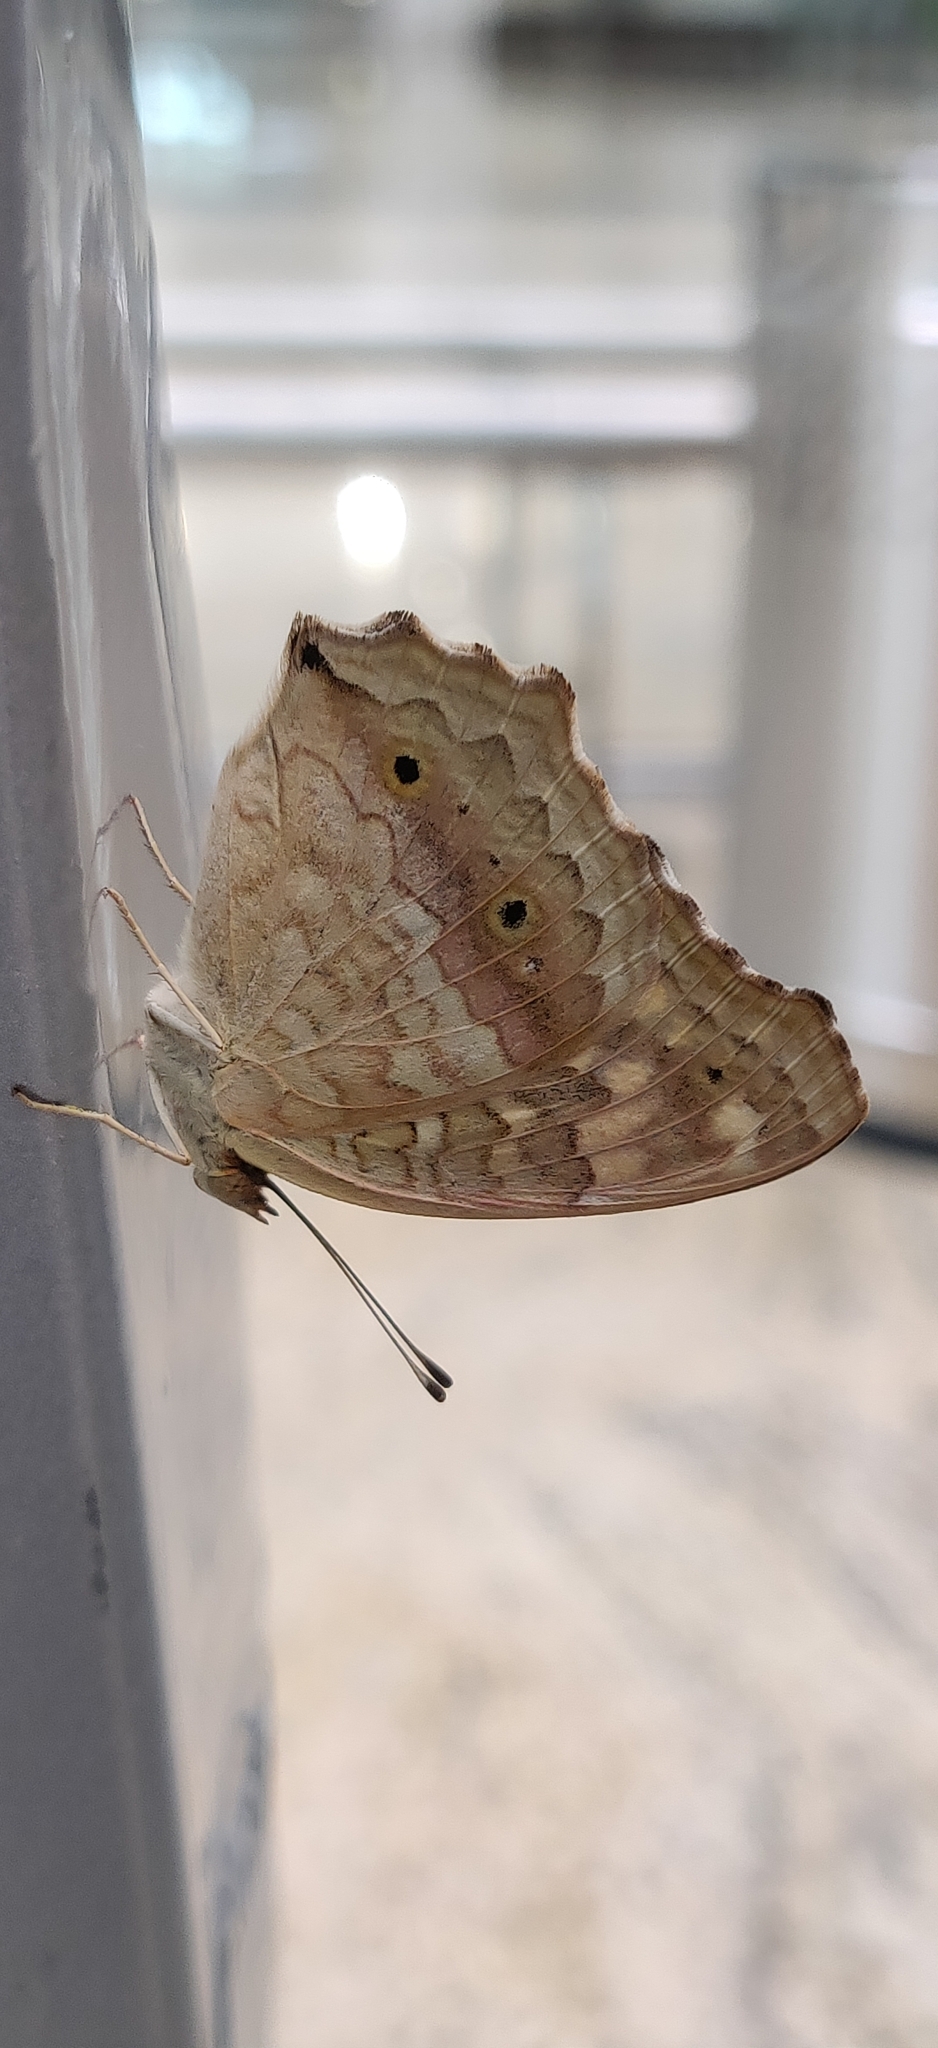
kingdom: Animalia
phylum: Arthropoda
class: Insecta
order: Lepidoptera
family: Nymphalidae
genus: Junonia
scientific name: Junonia lemonias
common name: Lemon pansy
